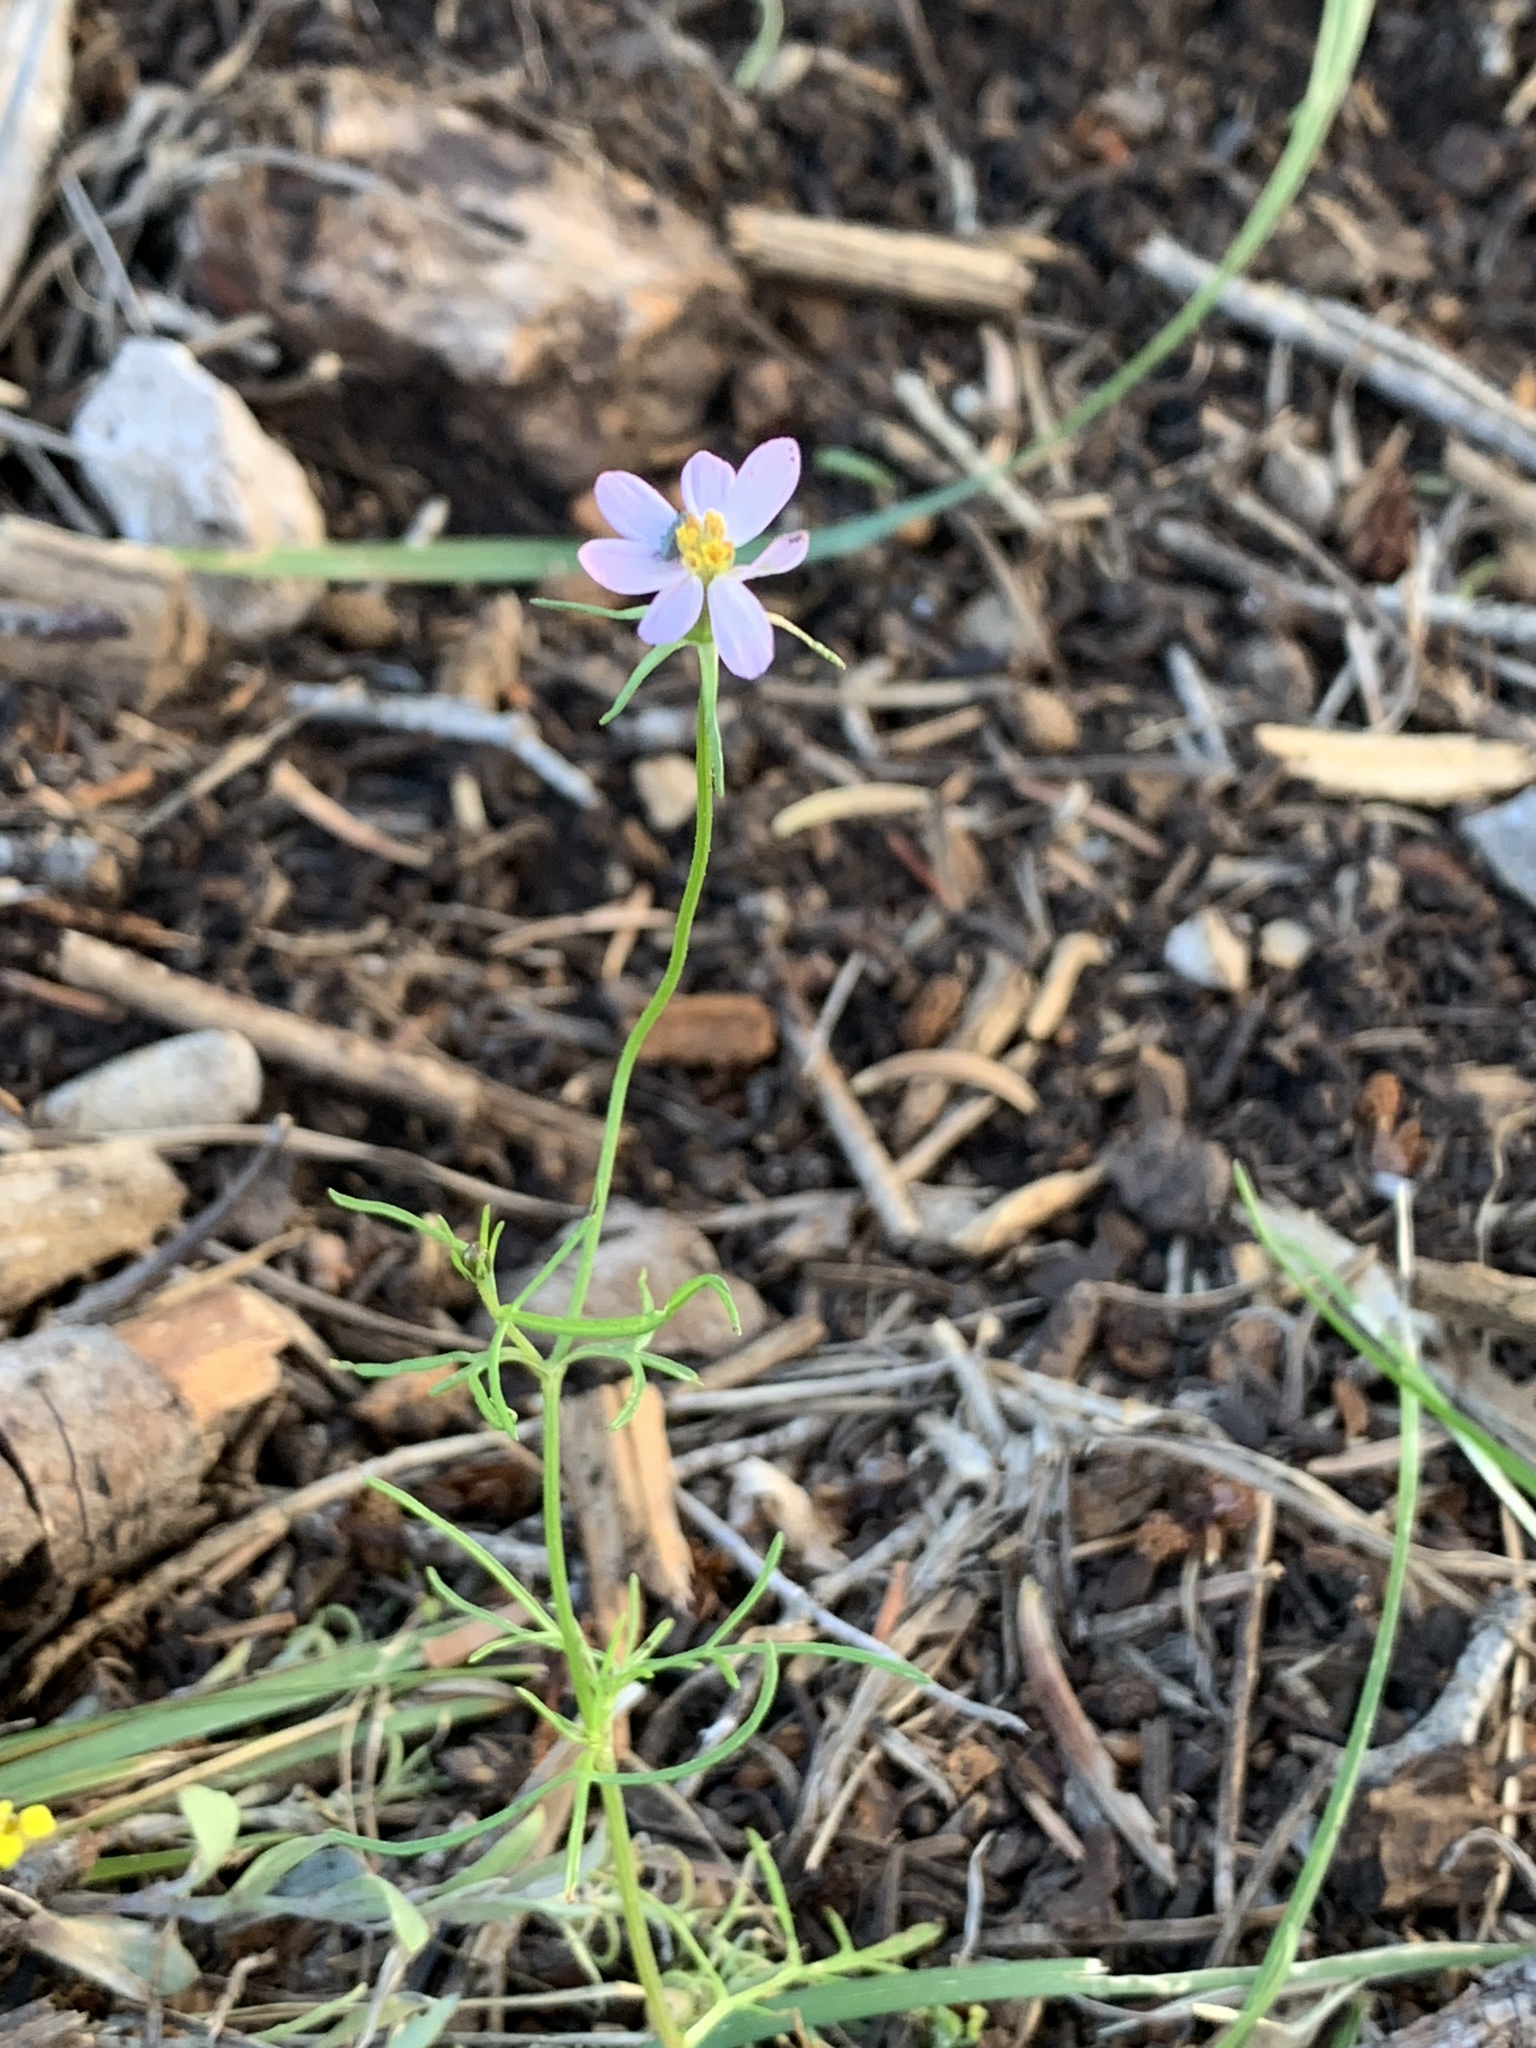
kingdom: Plantae
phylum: Tracheophyta
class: Magnoliopsida
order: Asterales
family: Asteraceae
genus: Cosmos
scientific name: Cosmos parviflorus
